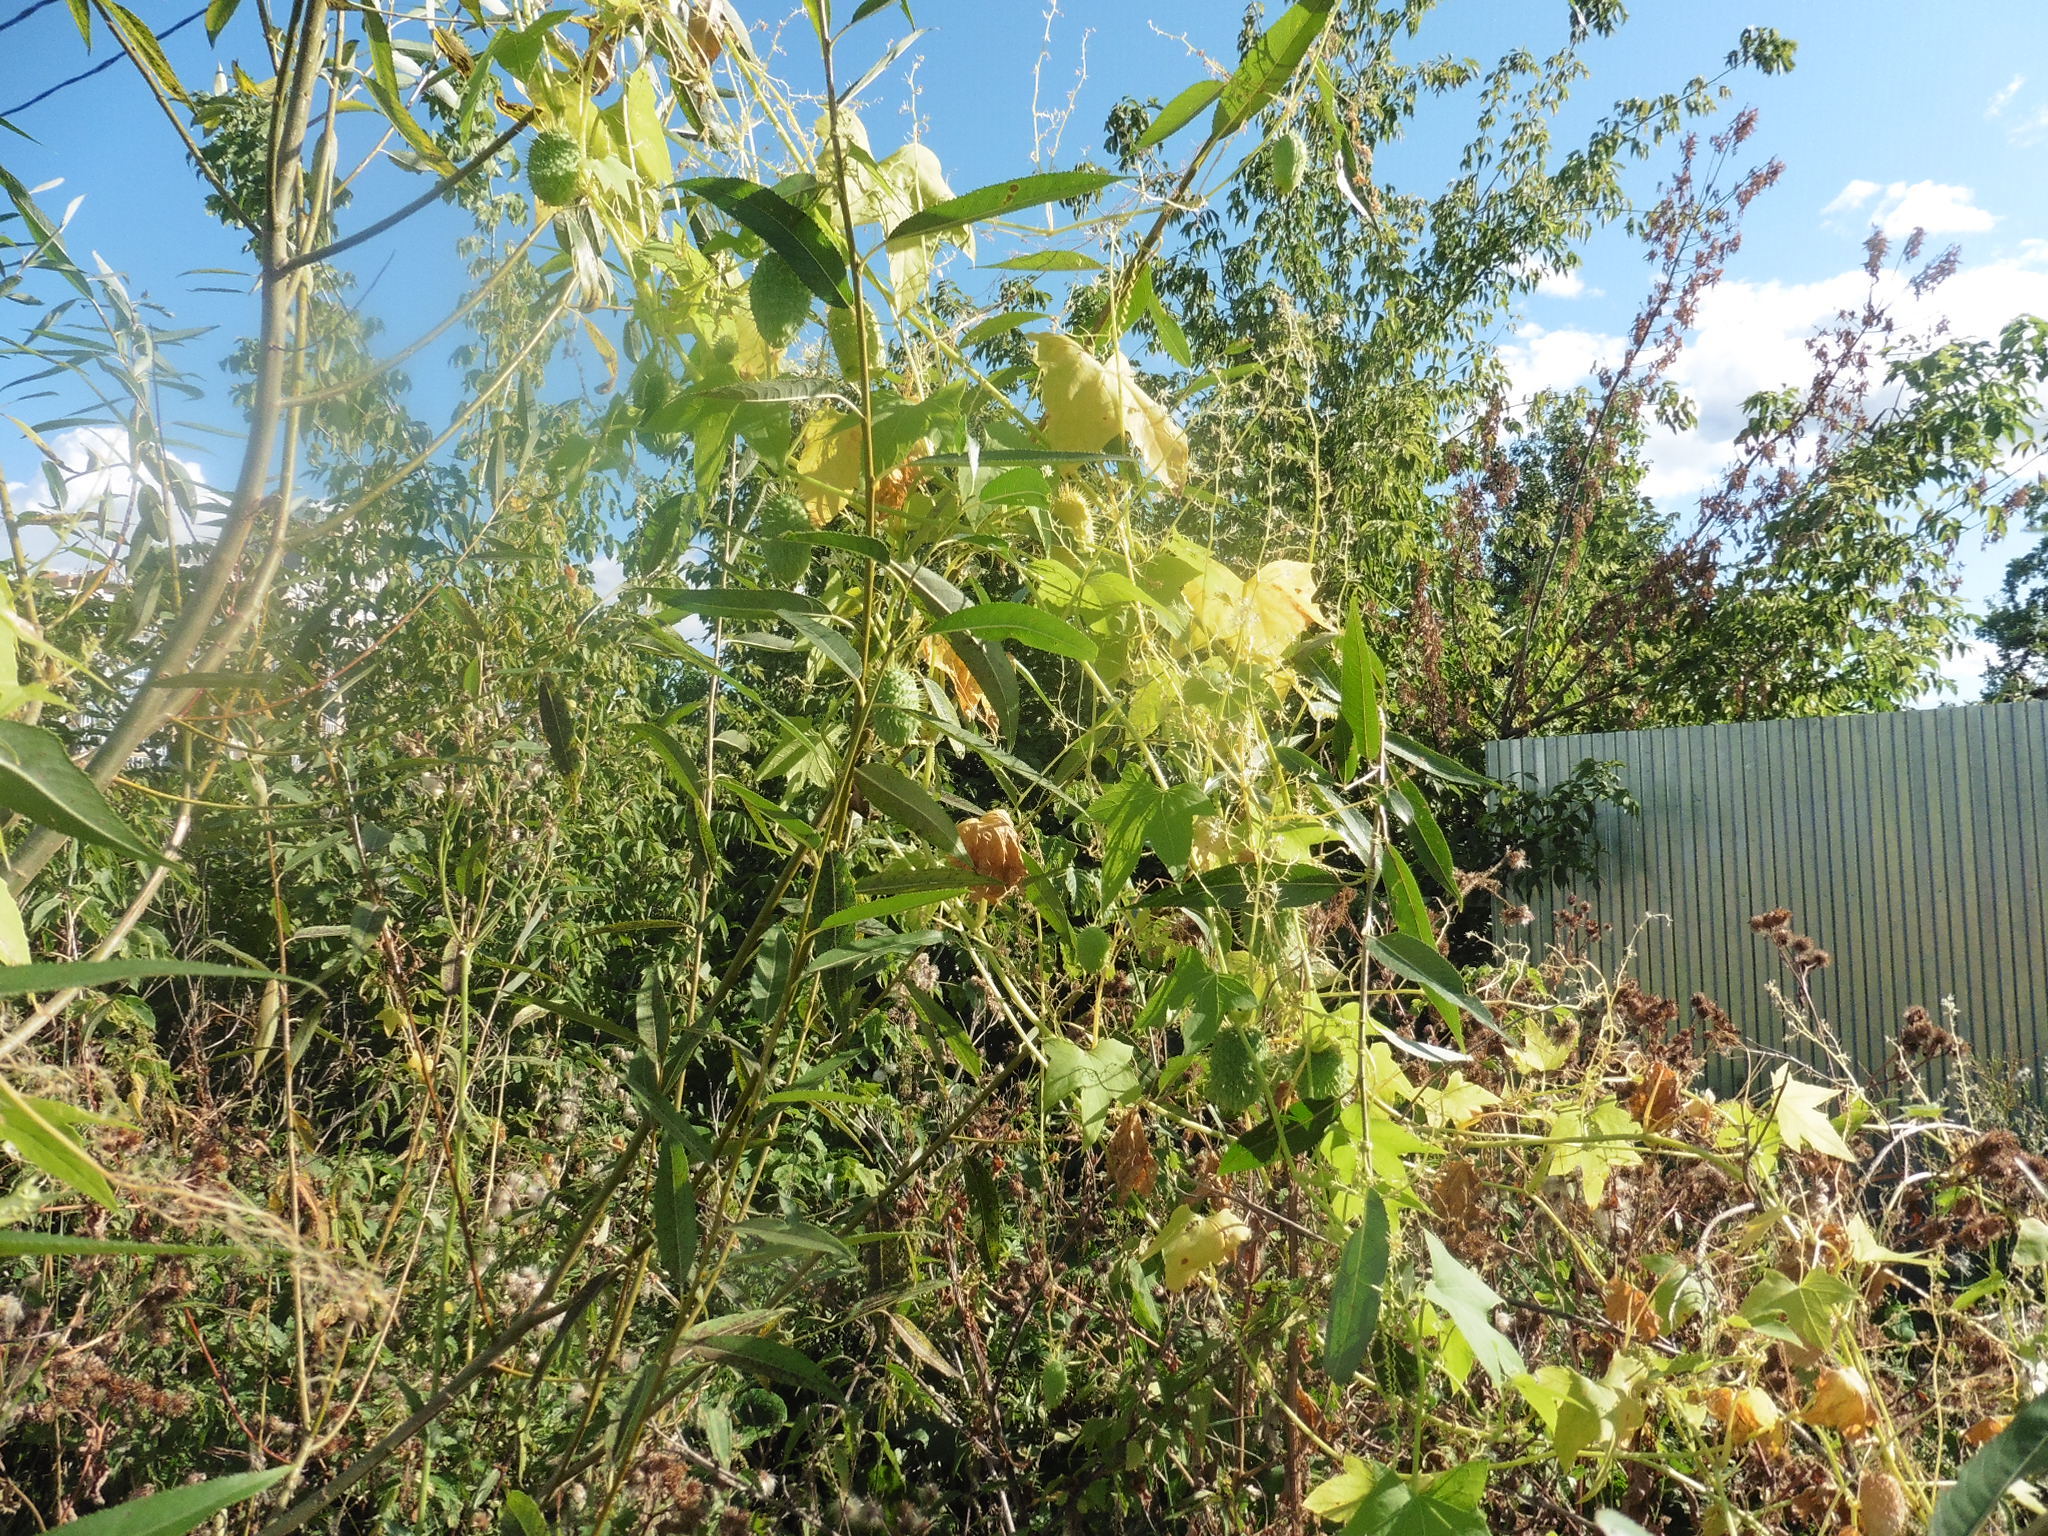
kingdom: Plantae
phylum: Tracheophyta
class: Magnoliopsida
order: Cucurbitales
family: Cucurbitaceae
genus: Echinocystis
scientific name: Echinocystis lobata
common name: Wild cucumber
